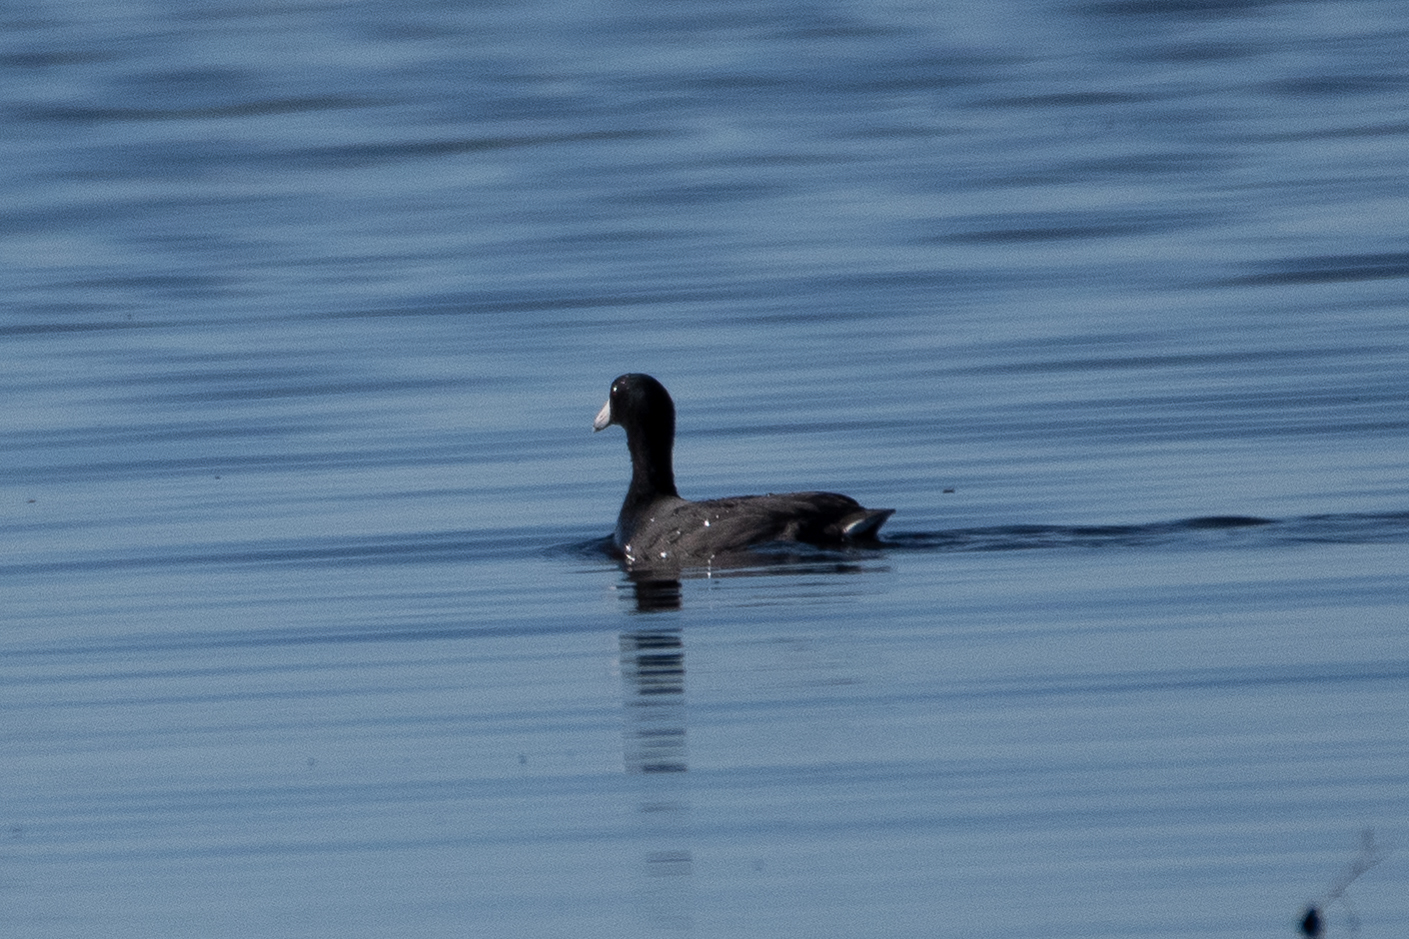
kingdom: Animalia
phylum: Chordata
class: Aves
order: Gruiformes
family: Rallidae
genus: Fulica
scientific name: Fulica americana
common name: American coot
